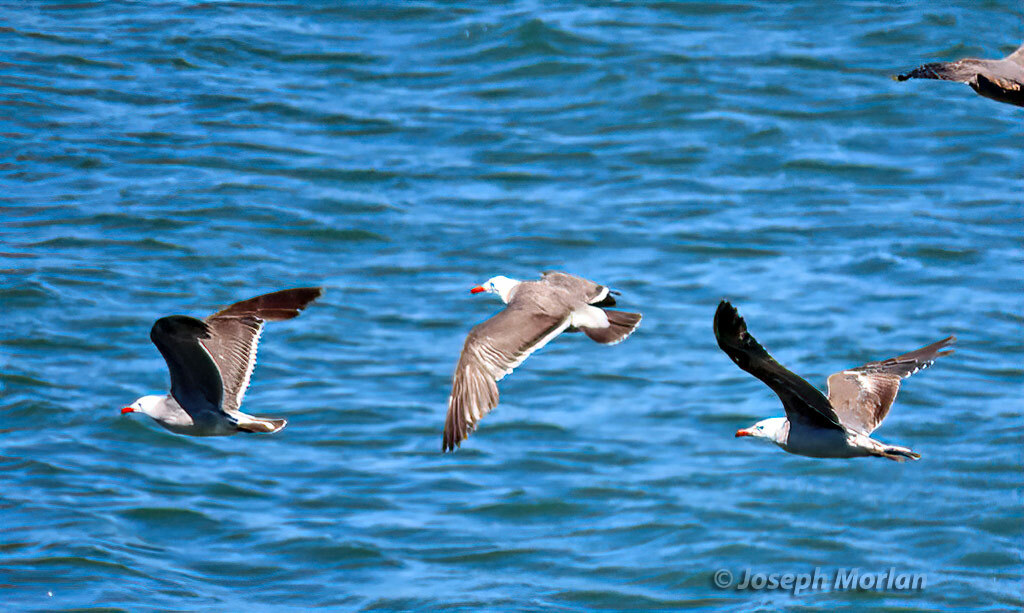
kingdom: Animalia
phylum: Chordata
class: Aves
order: Charadriiformes
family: Laridae
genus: Larus
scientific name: Larus heermanni
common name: Heermann's gull
